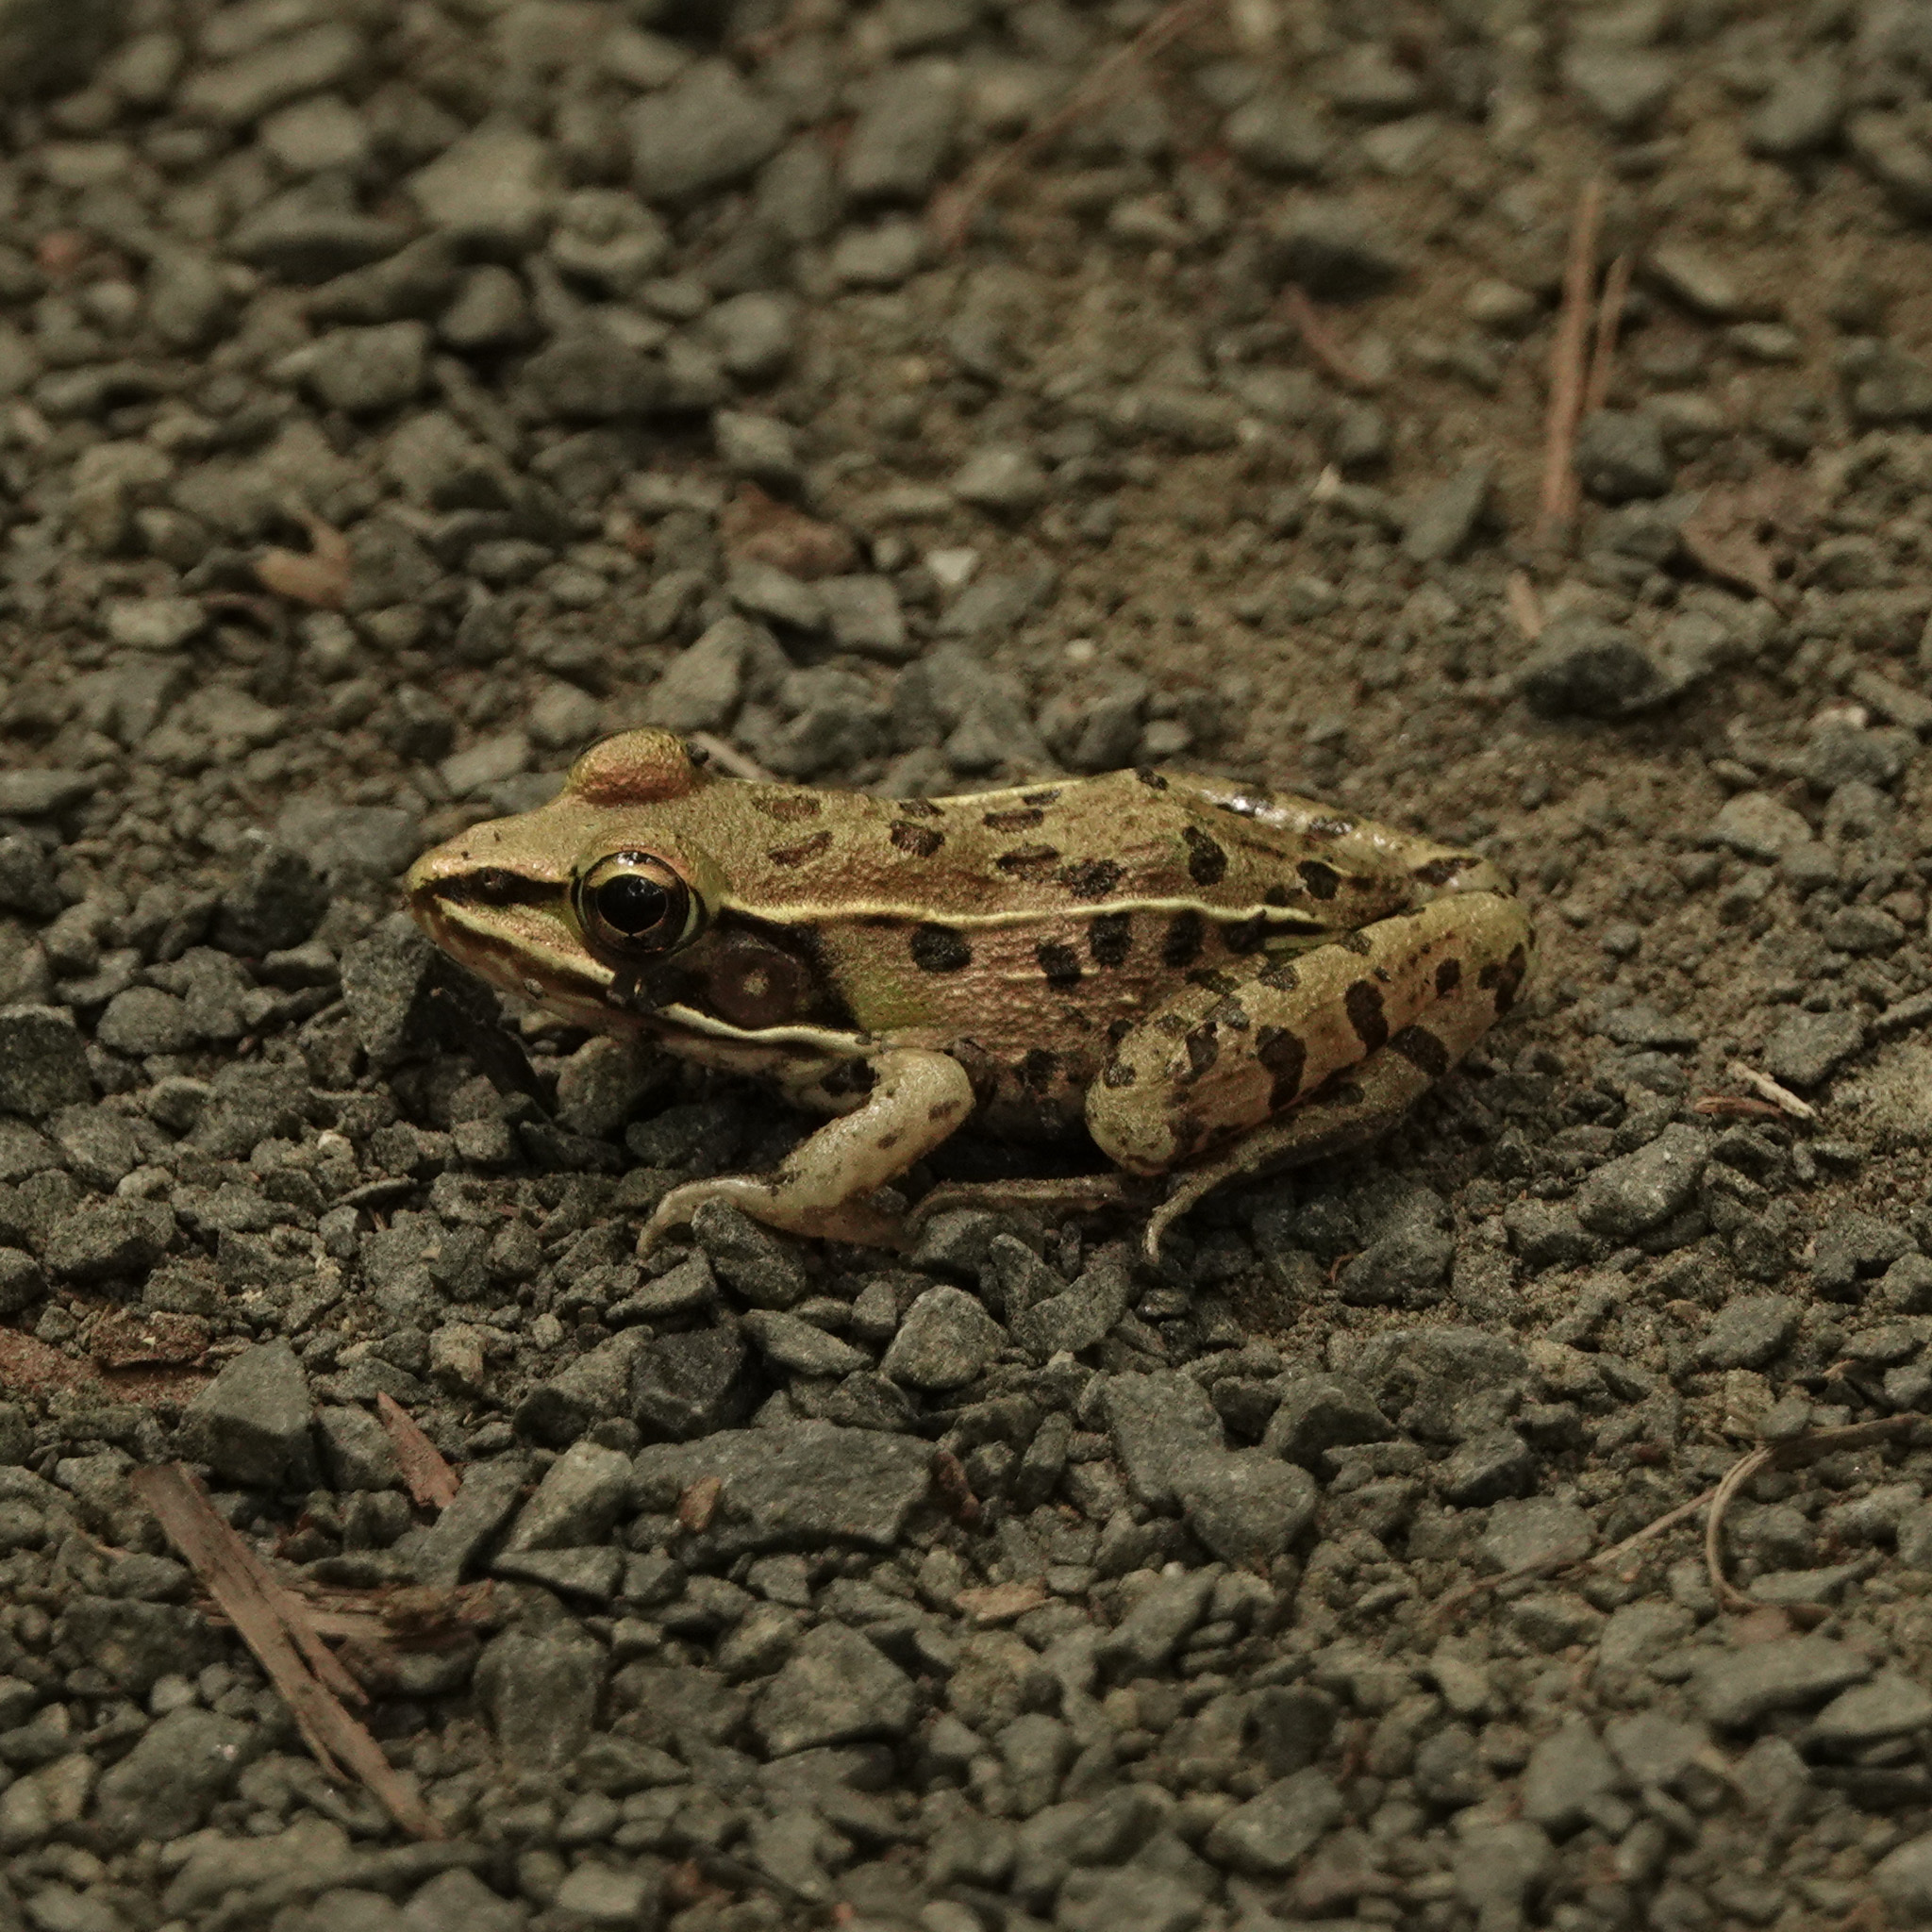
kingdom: Animalia
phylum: Chordata
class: Amphibia
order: Anura
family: Ranidae
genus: Lithobates
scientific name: Lithobates sphenocephalus
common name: Southern leopard frog
